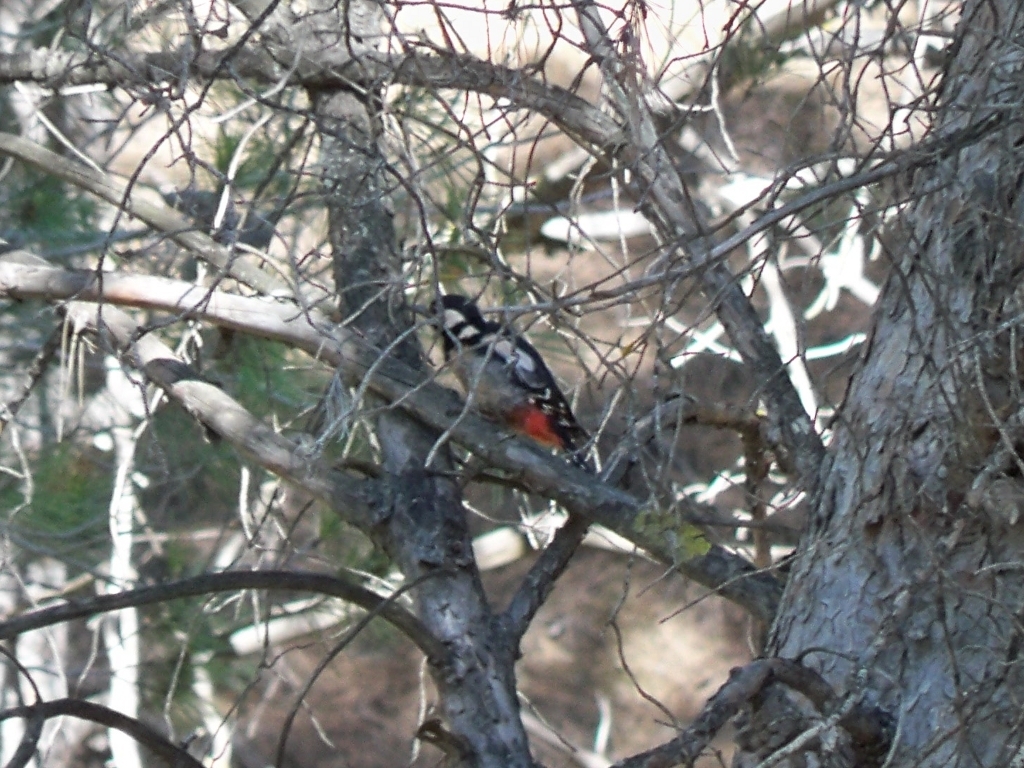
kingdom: Animalia
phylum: Chordata
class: Aves
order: Piciformes
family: Picidae
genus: Dendrocopos
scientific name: Dendrocopos major
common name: Great spotted woodpecker
